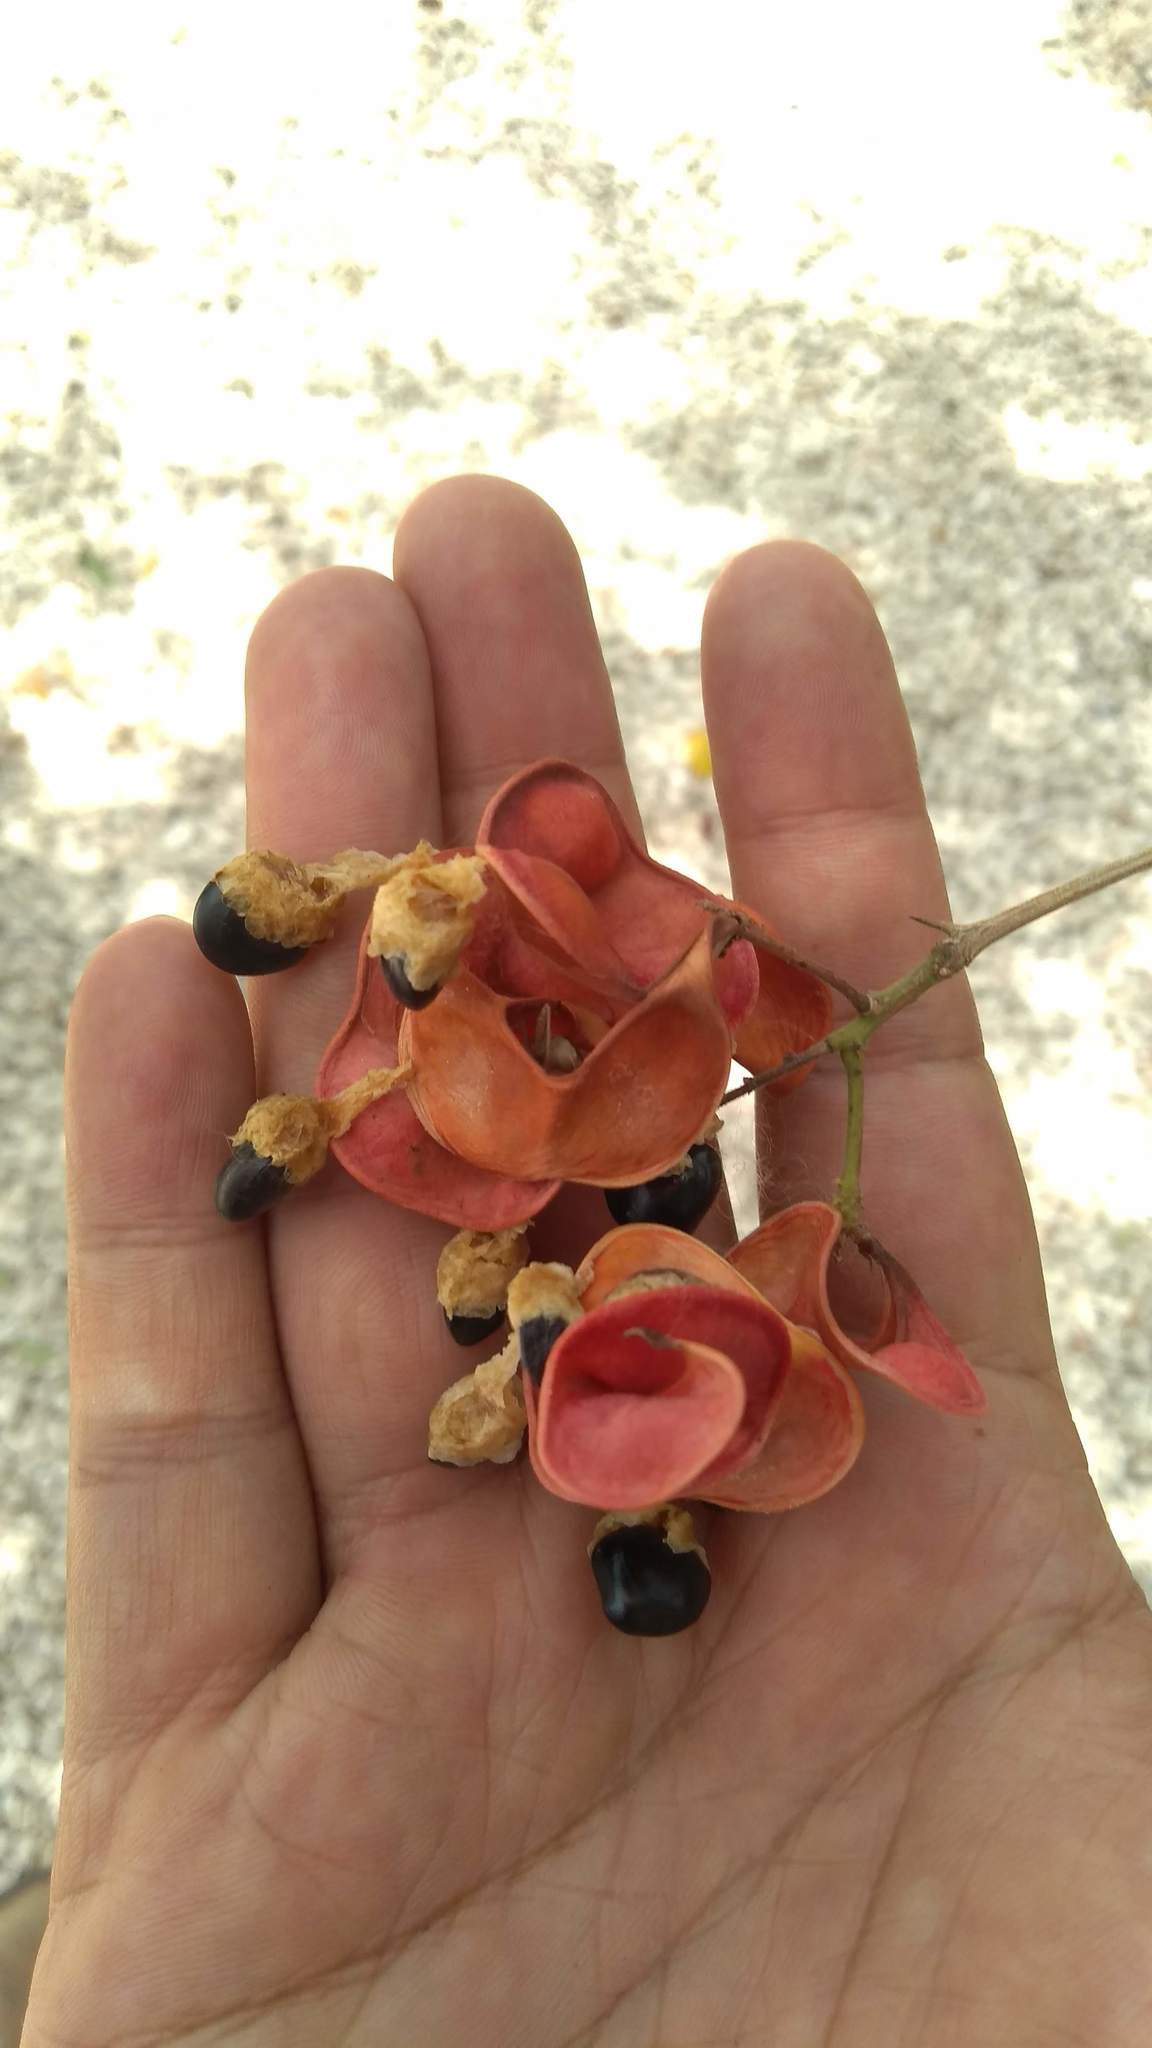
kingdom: Plantae
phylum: Tracheophyta
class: Magnoliopsida
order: Fabales
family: Fabaceae
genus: Pithecellobium
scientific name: Pithecellobium dulce
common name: Monkeypod
